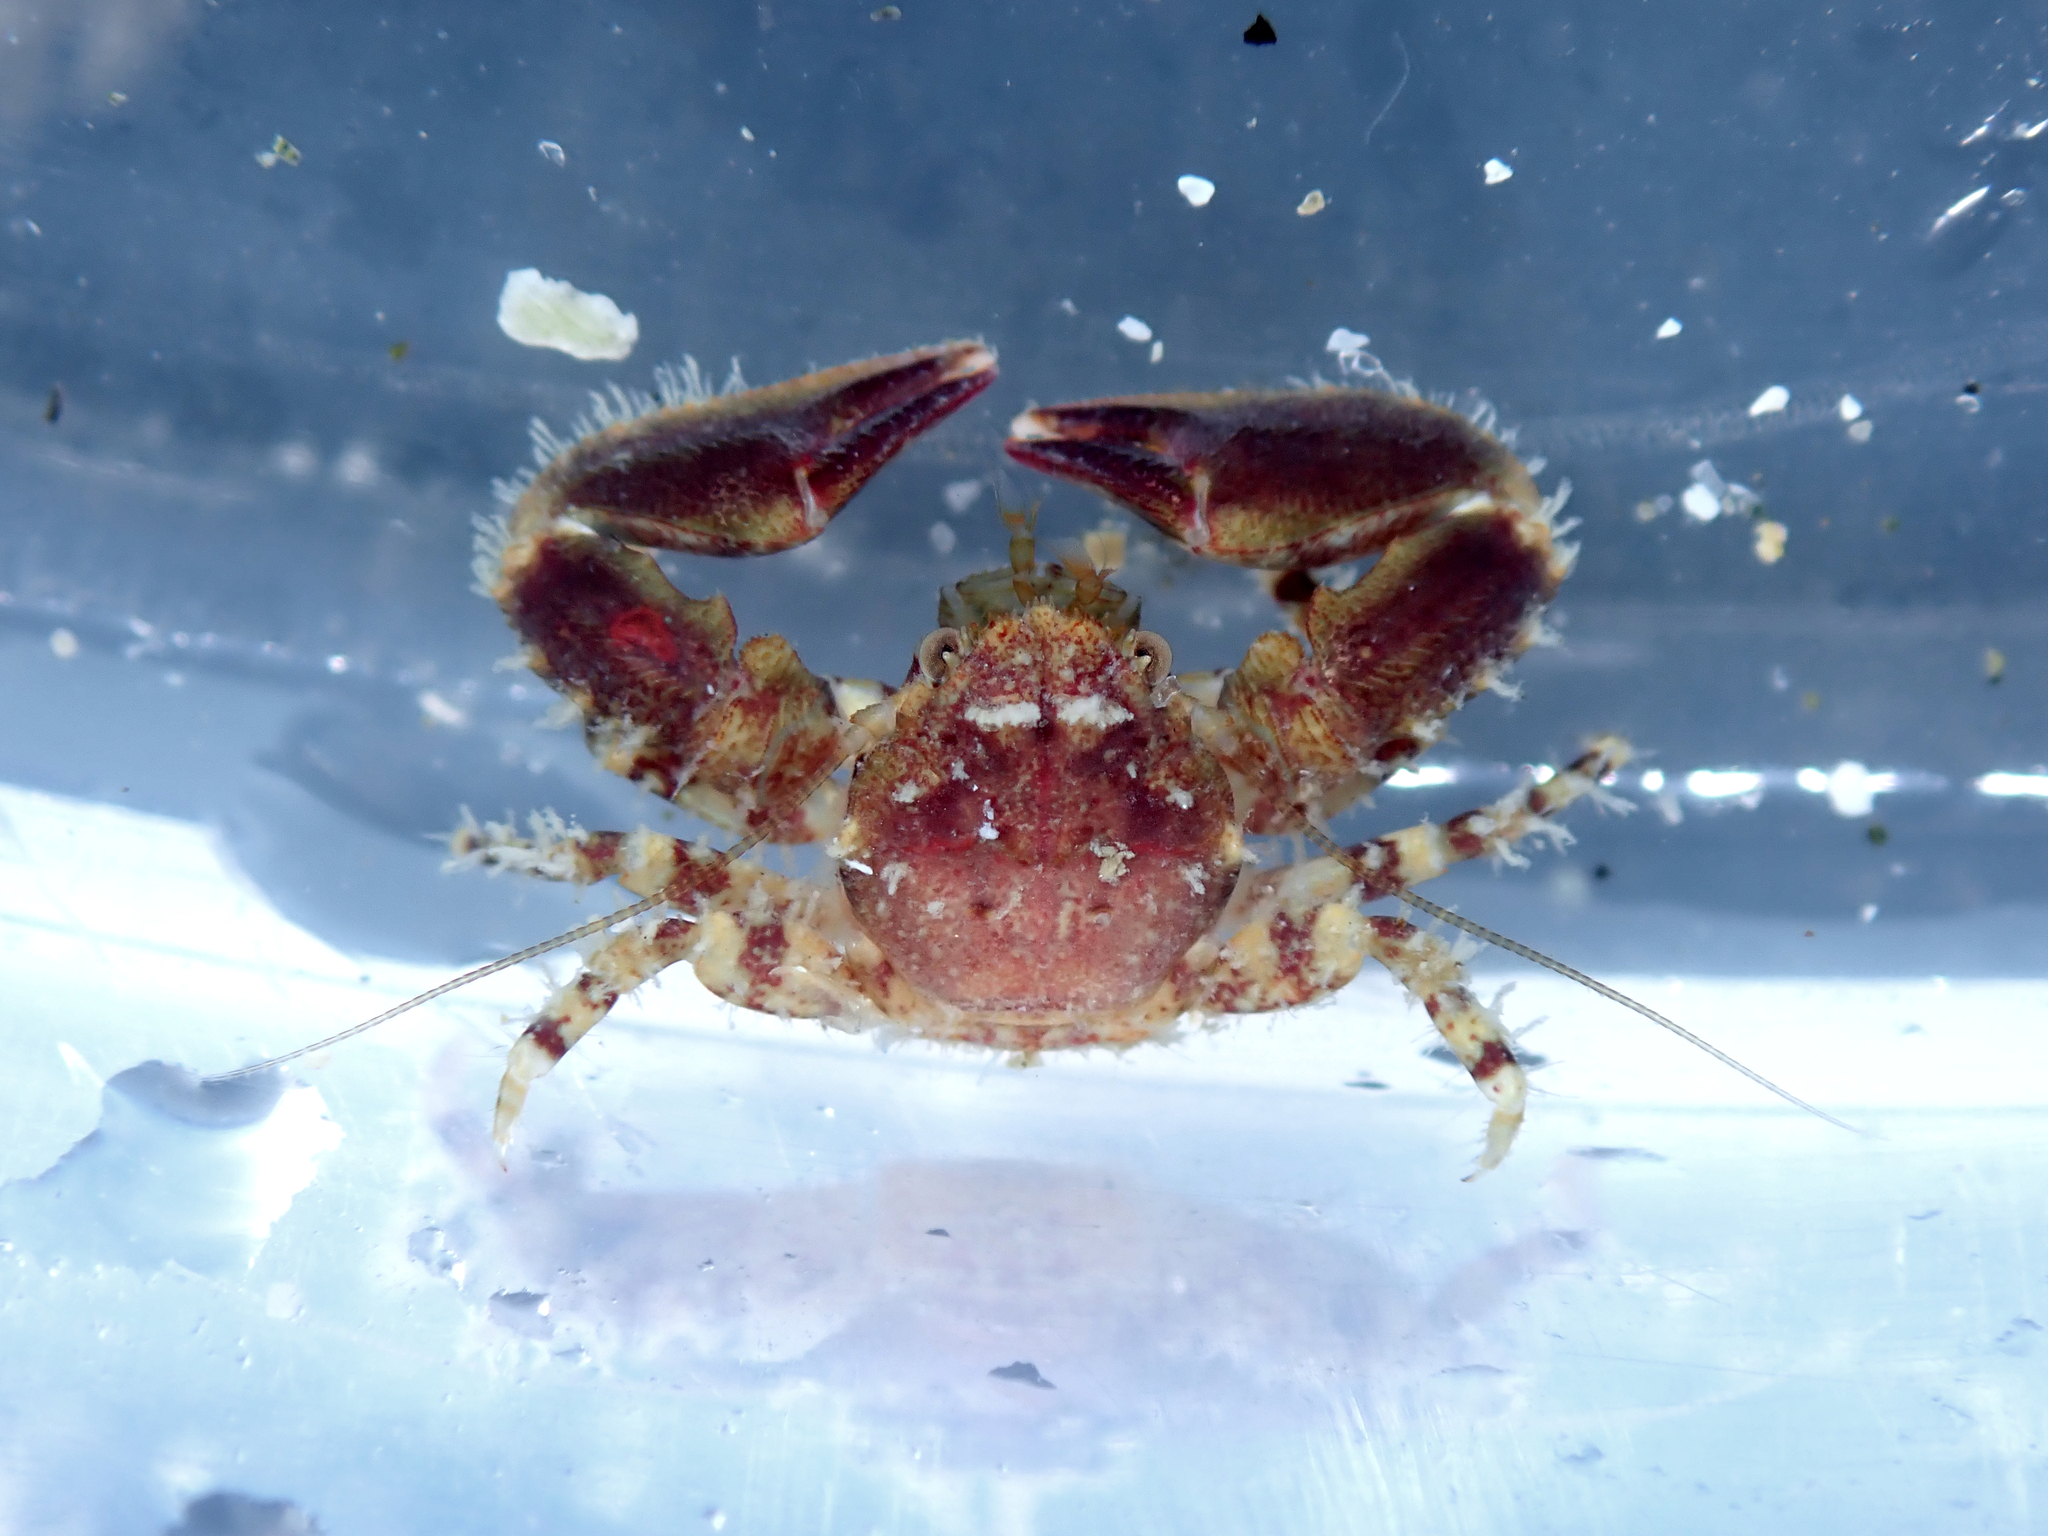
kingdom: Animalia
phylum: Arthropoda
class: Malacostraca
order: Decapoda
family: Porcellanidae
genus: Petrolisthes
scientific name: Petrolisthes novaezelandiae
